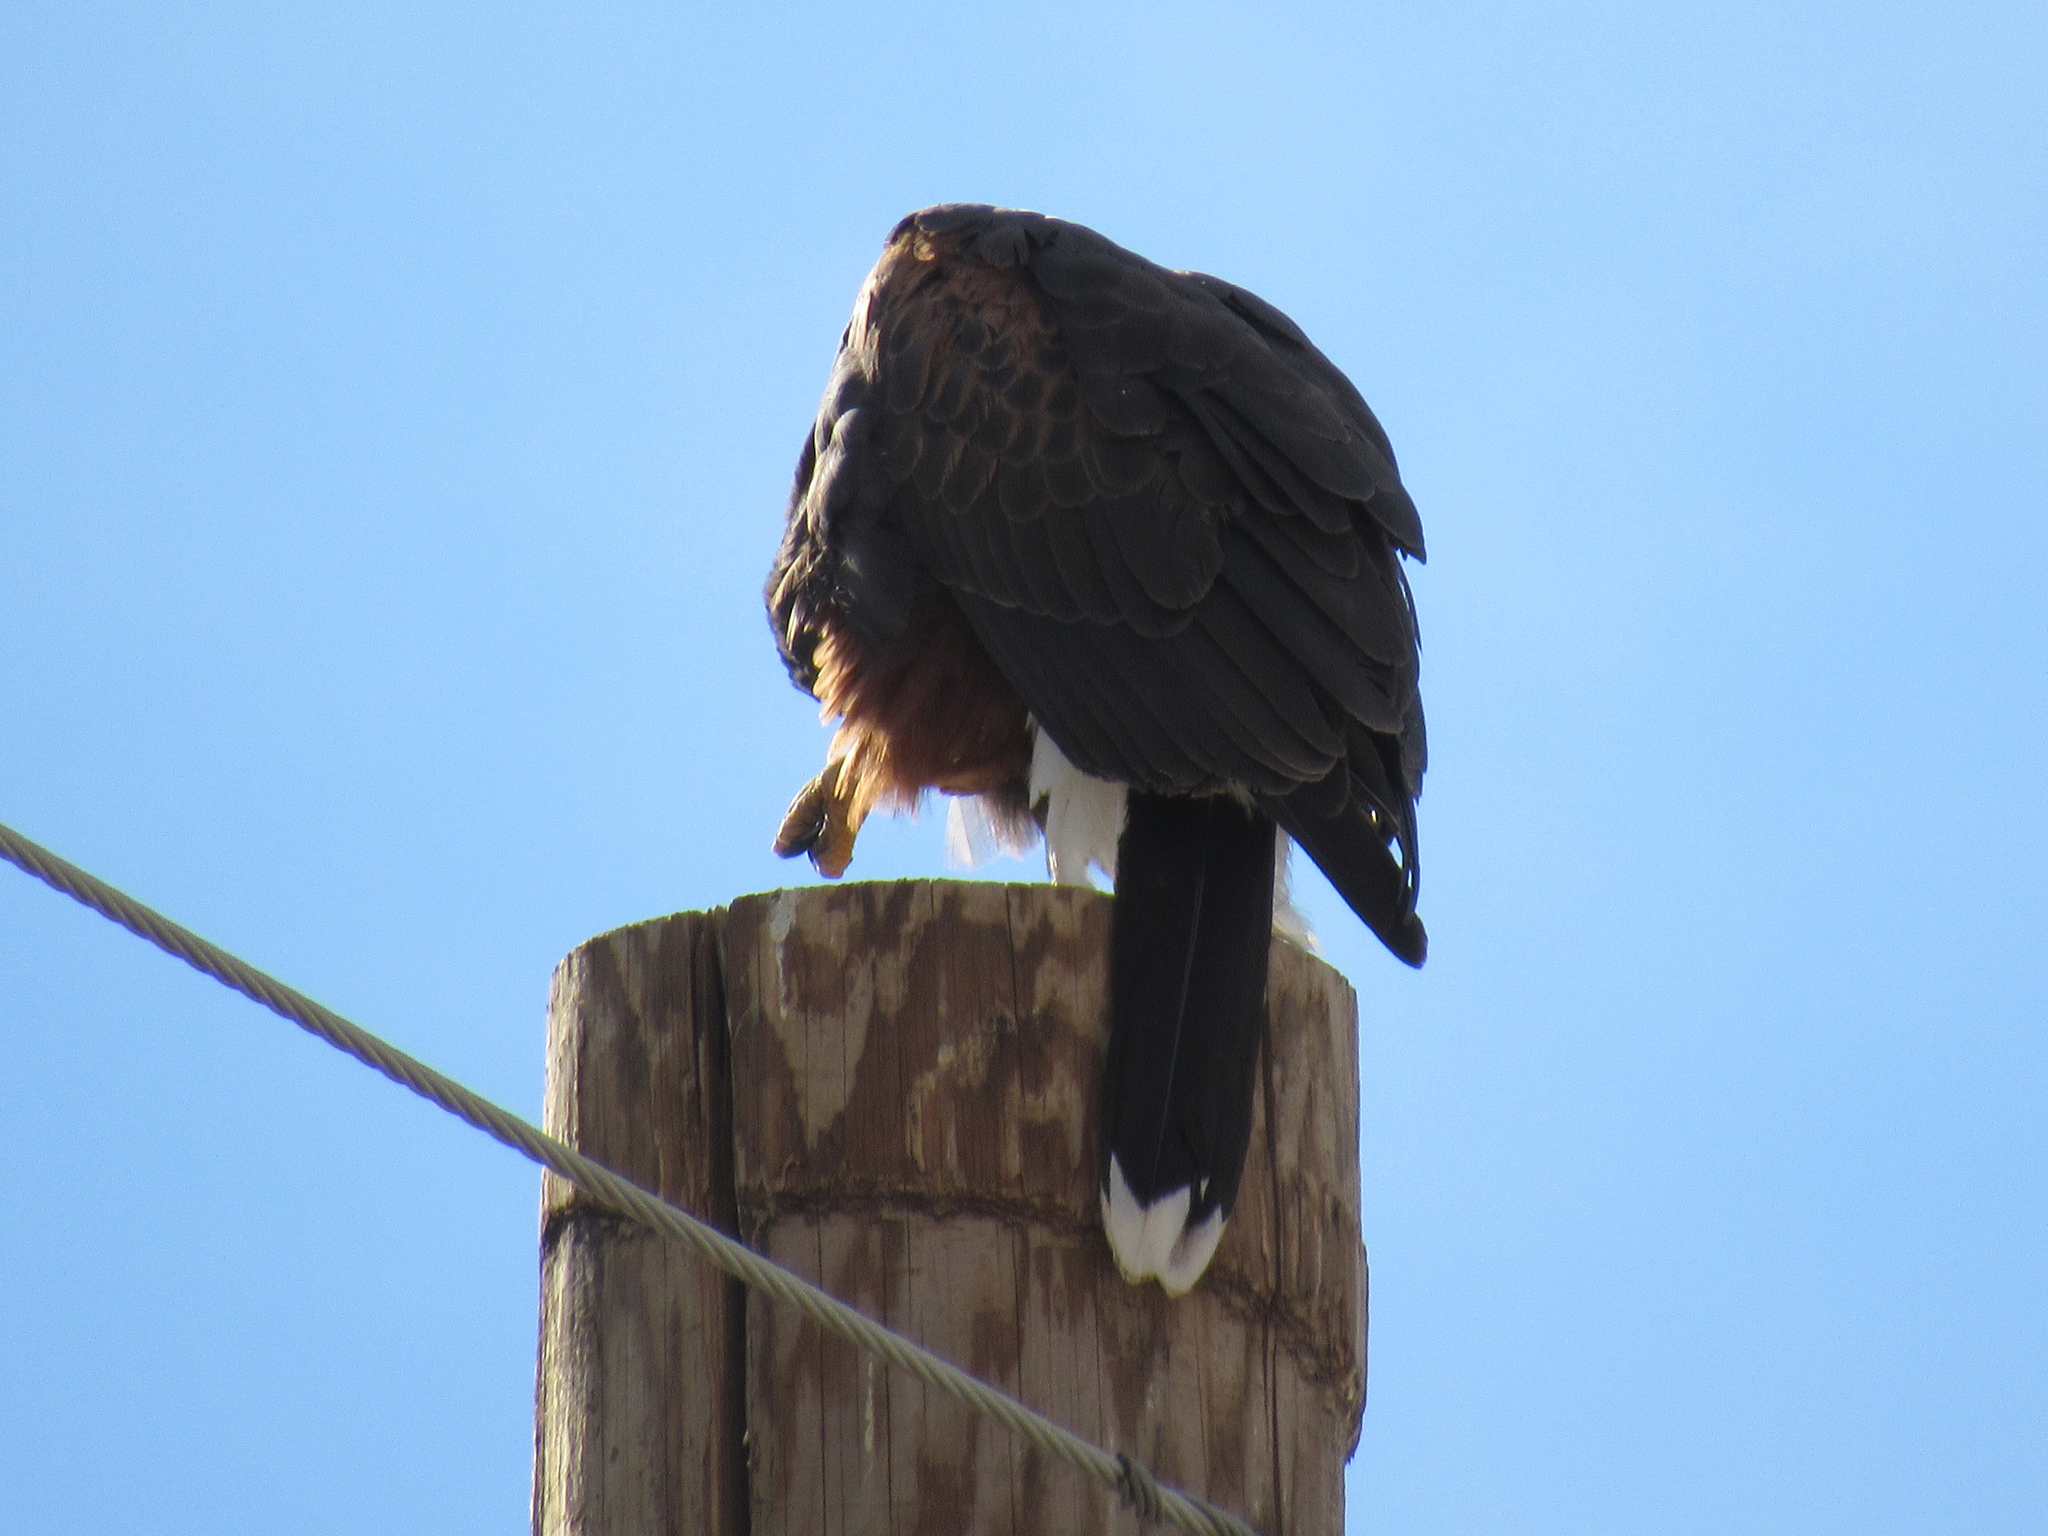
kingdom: Animalia
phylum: Chordata
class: Aves
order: Accipitriformes
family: Accipitridae
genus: Parabuteo
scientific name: Parabuteo unicinctus
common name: Harris's hawk
